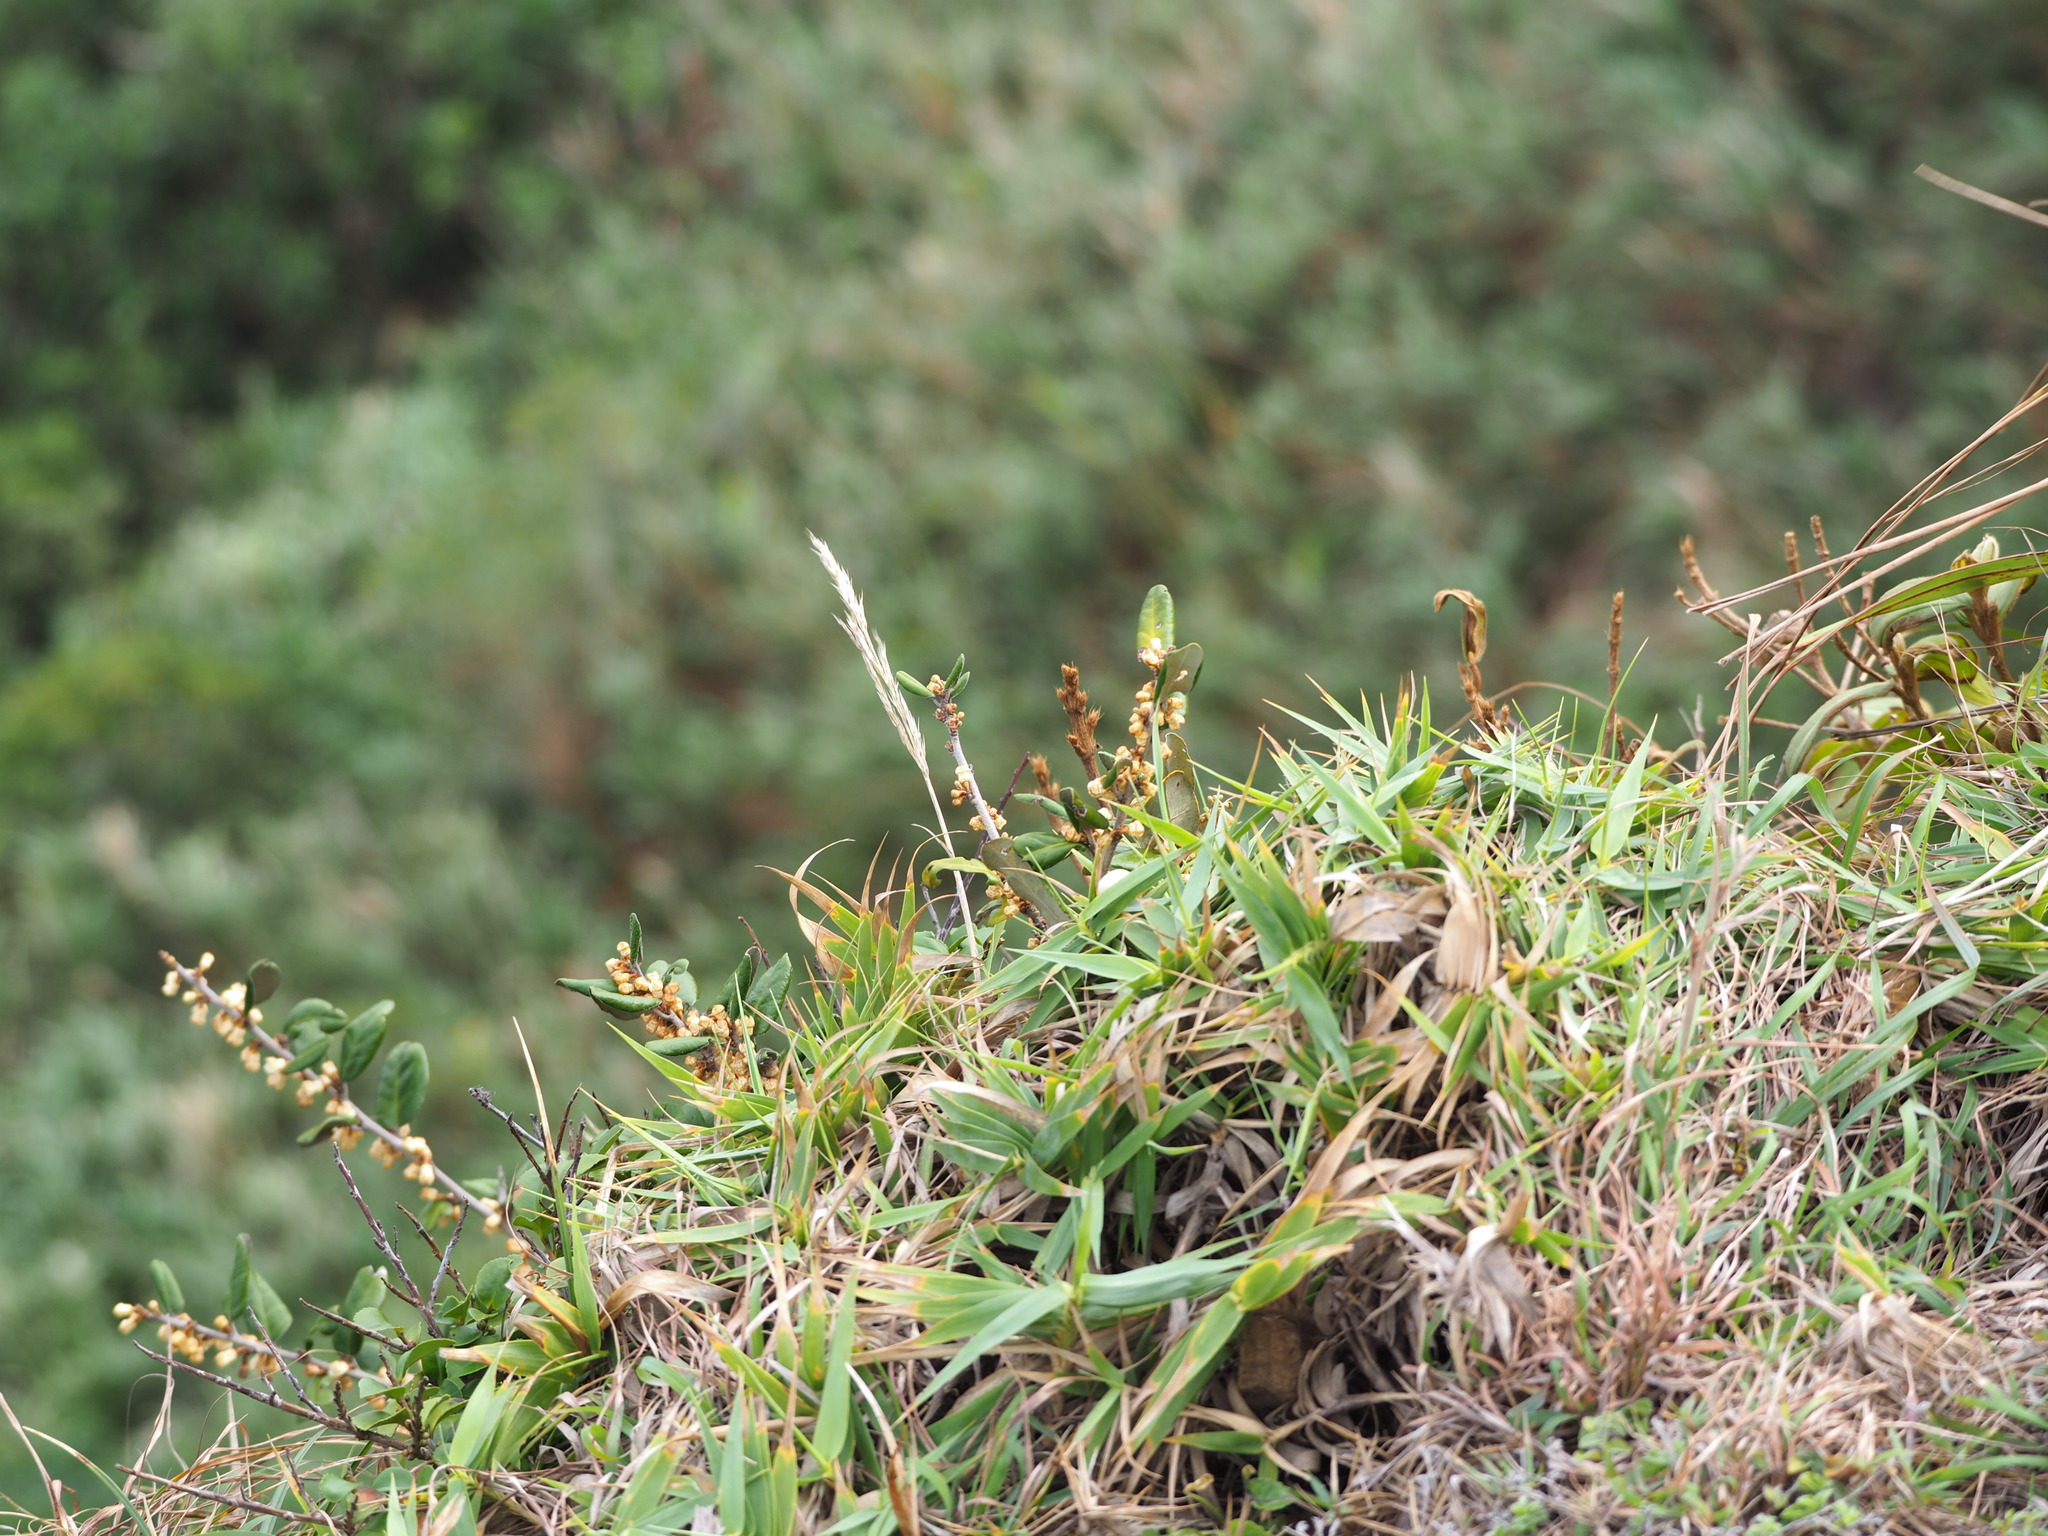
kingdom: Plantae
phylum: Tracheophyta
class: Magnoliopsida
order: Rosales
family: Elaeagnaceae
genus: Elaeagnus
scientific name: Elaeagnus formosana
